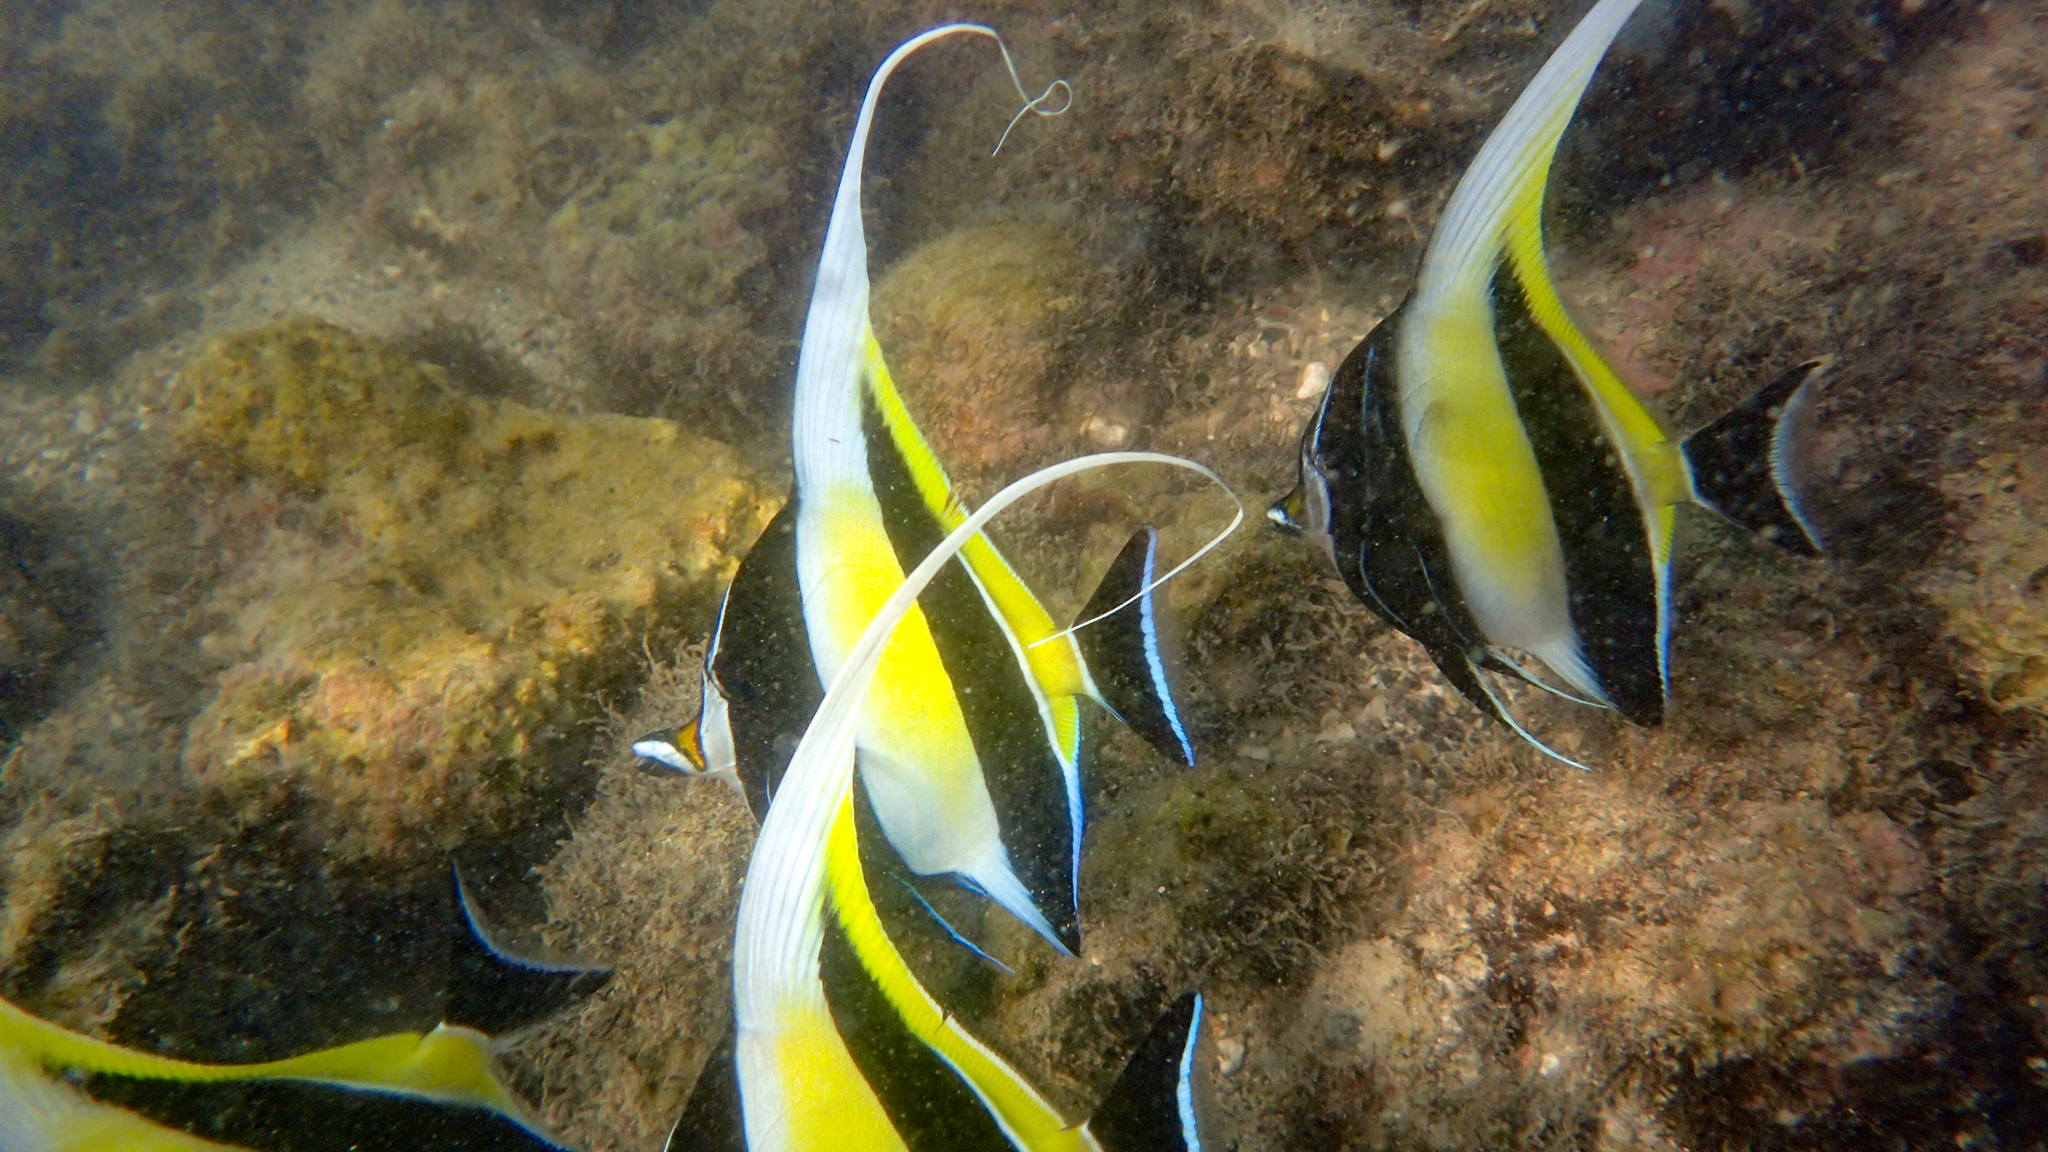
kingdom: Animalia
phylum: Chordata
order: Perciformes
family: Zanclidae
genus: Zanclus
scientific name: Zanclus cornutus
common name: Moorish idol
